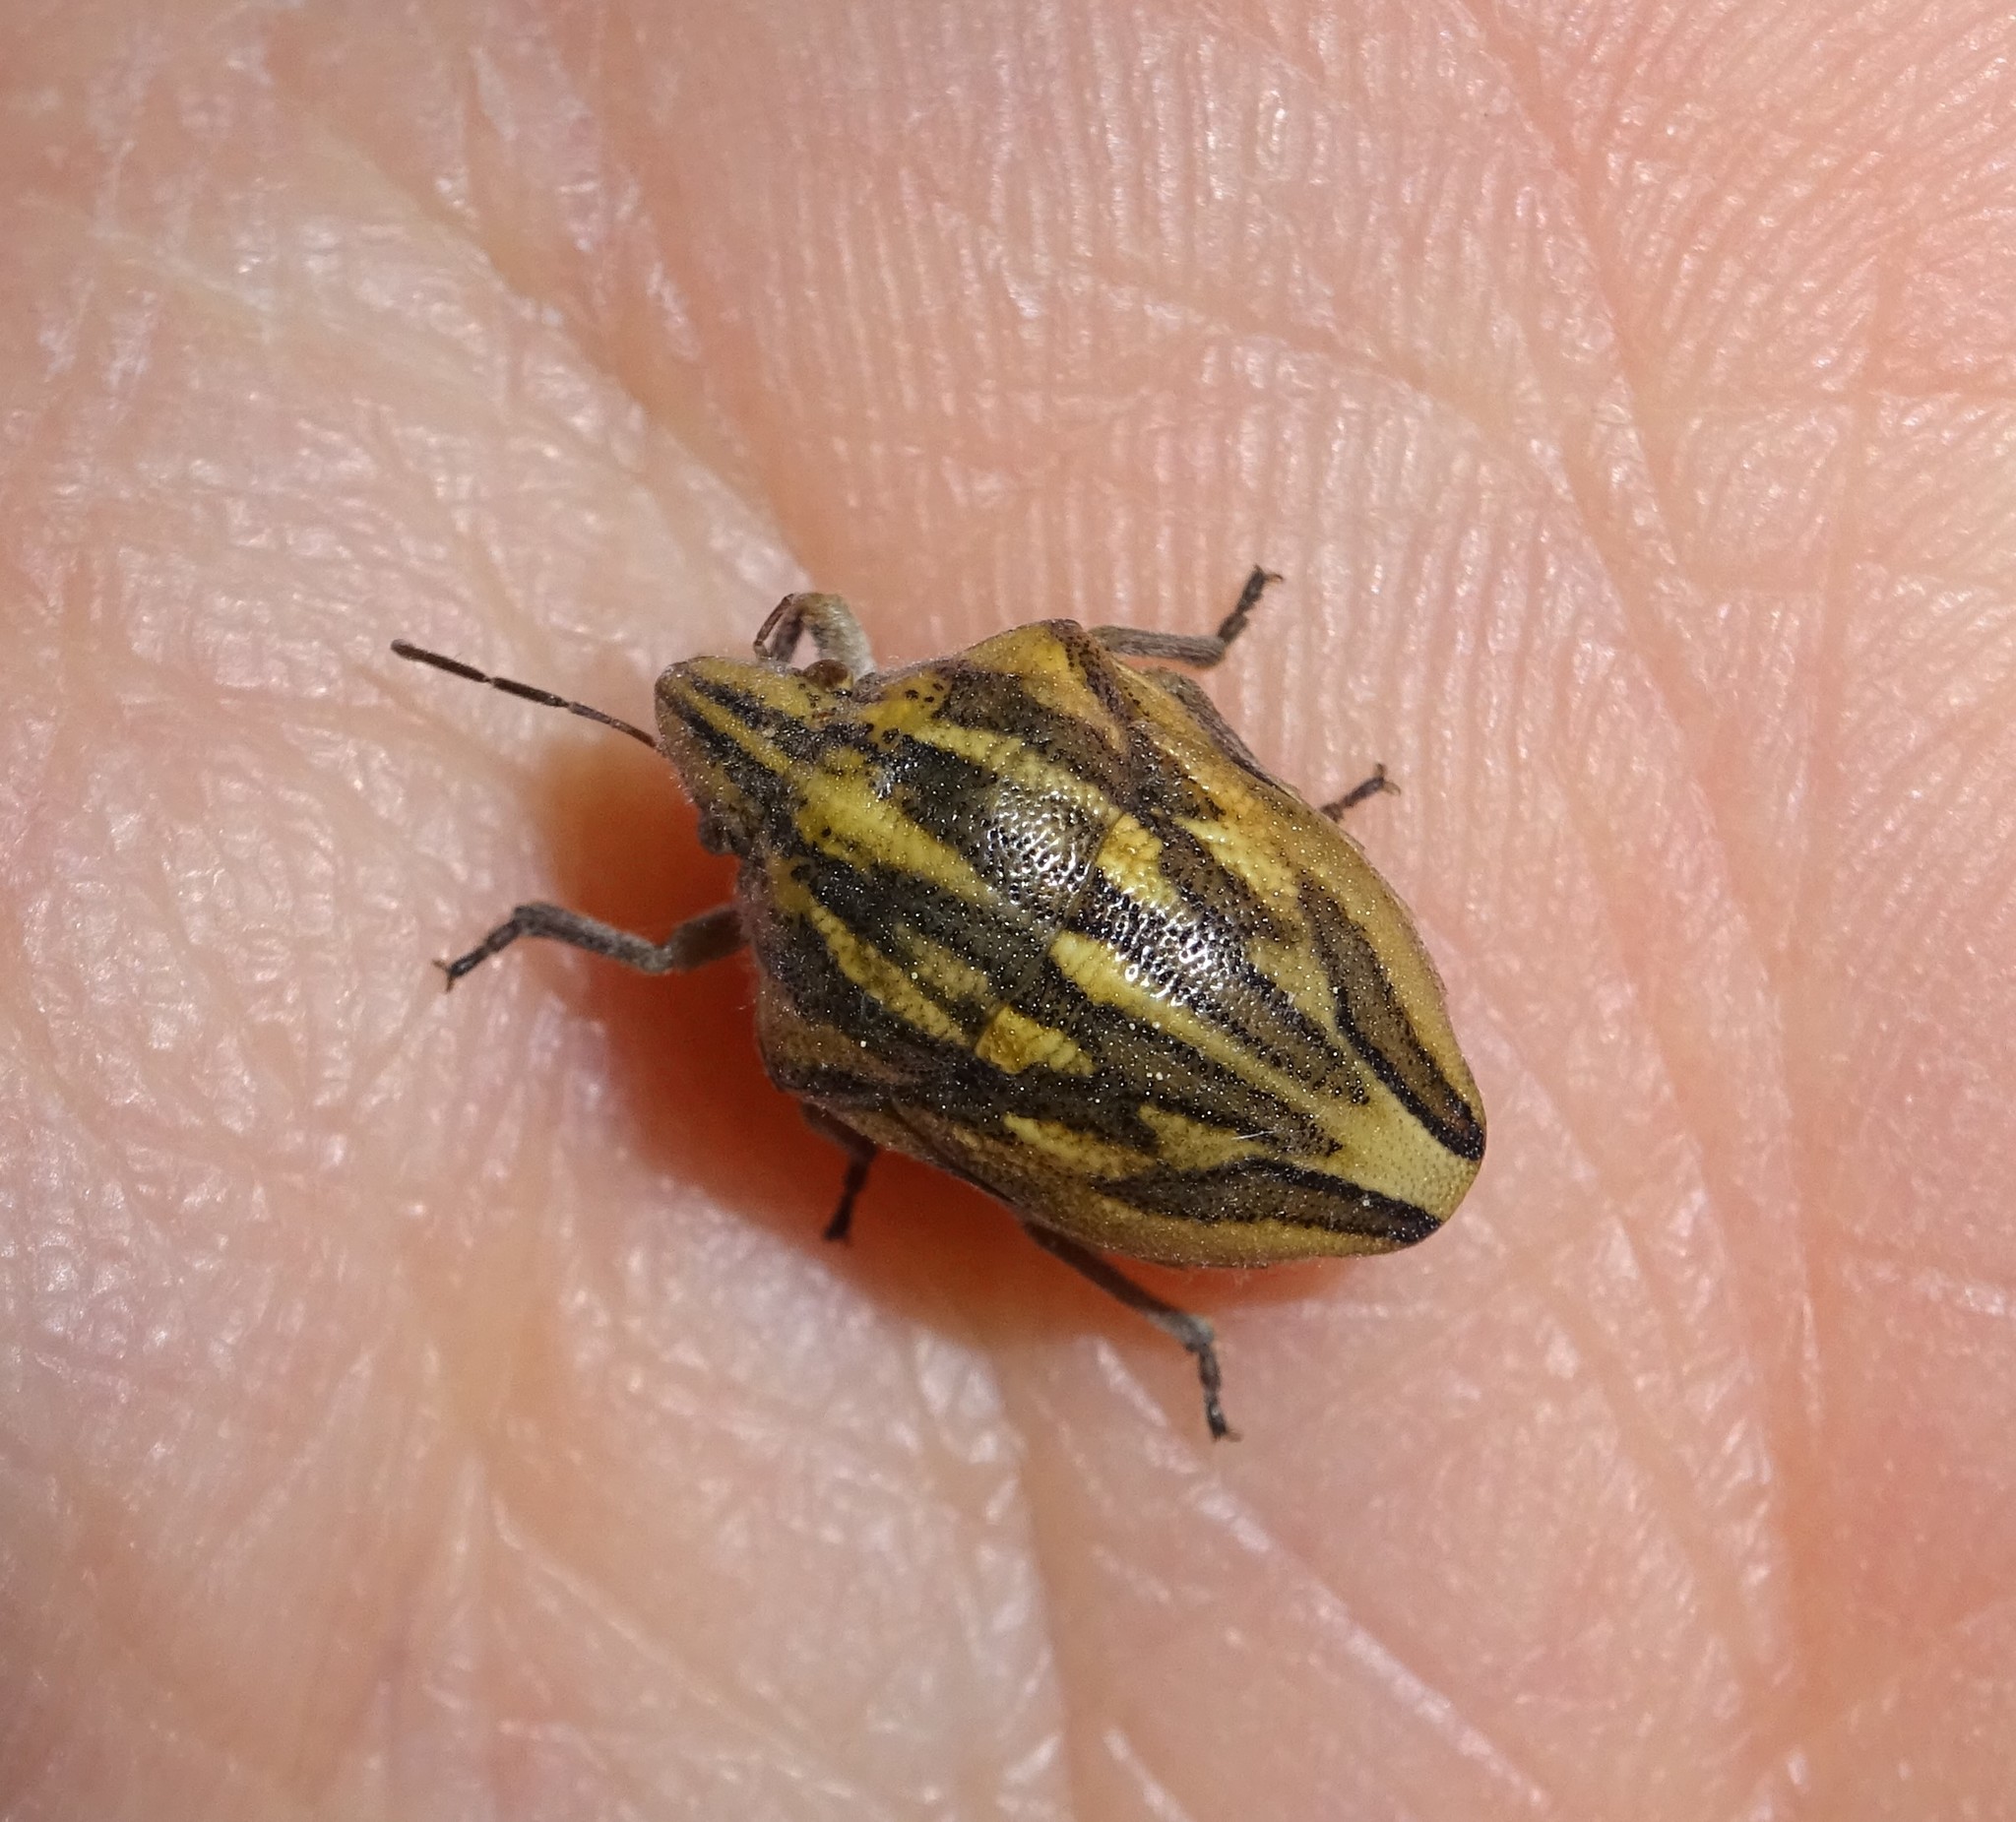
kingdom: Animalia
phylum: Arthropoda
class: Insecta
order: Hemiptera
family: Scutelleridae
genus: Odontotarsus
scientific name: Odontotarsus purpureolineatus
